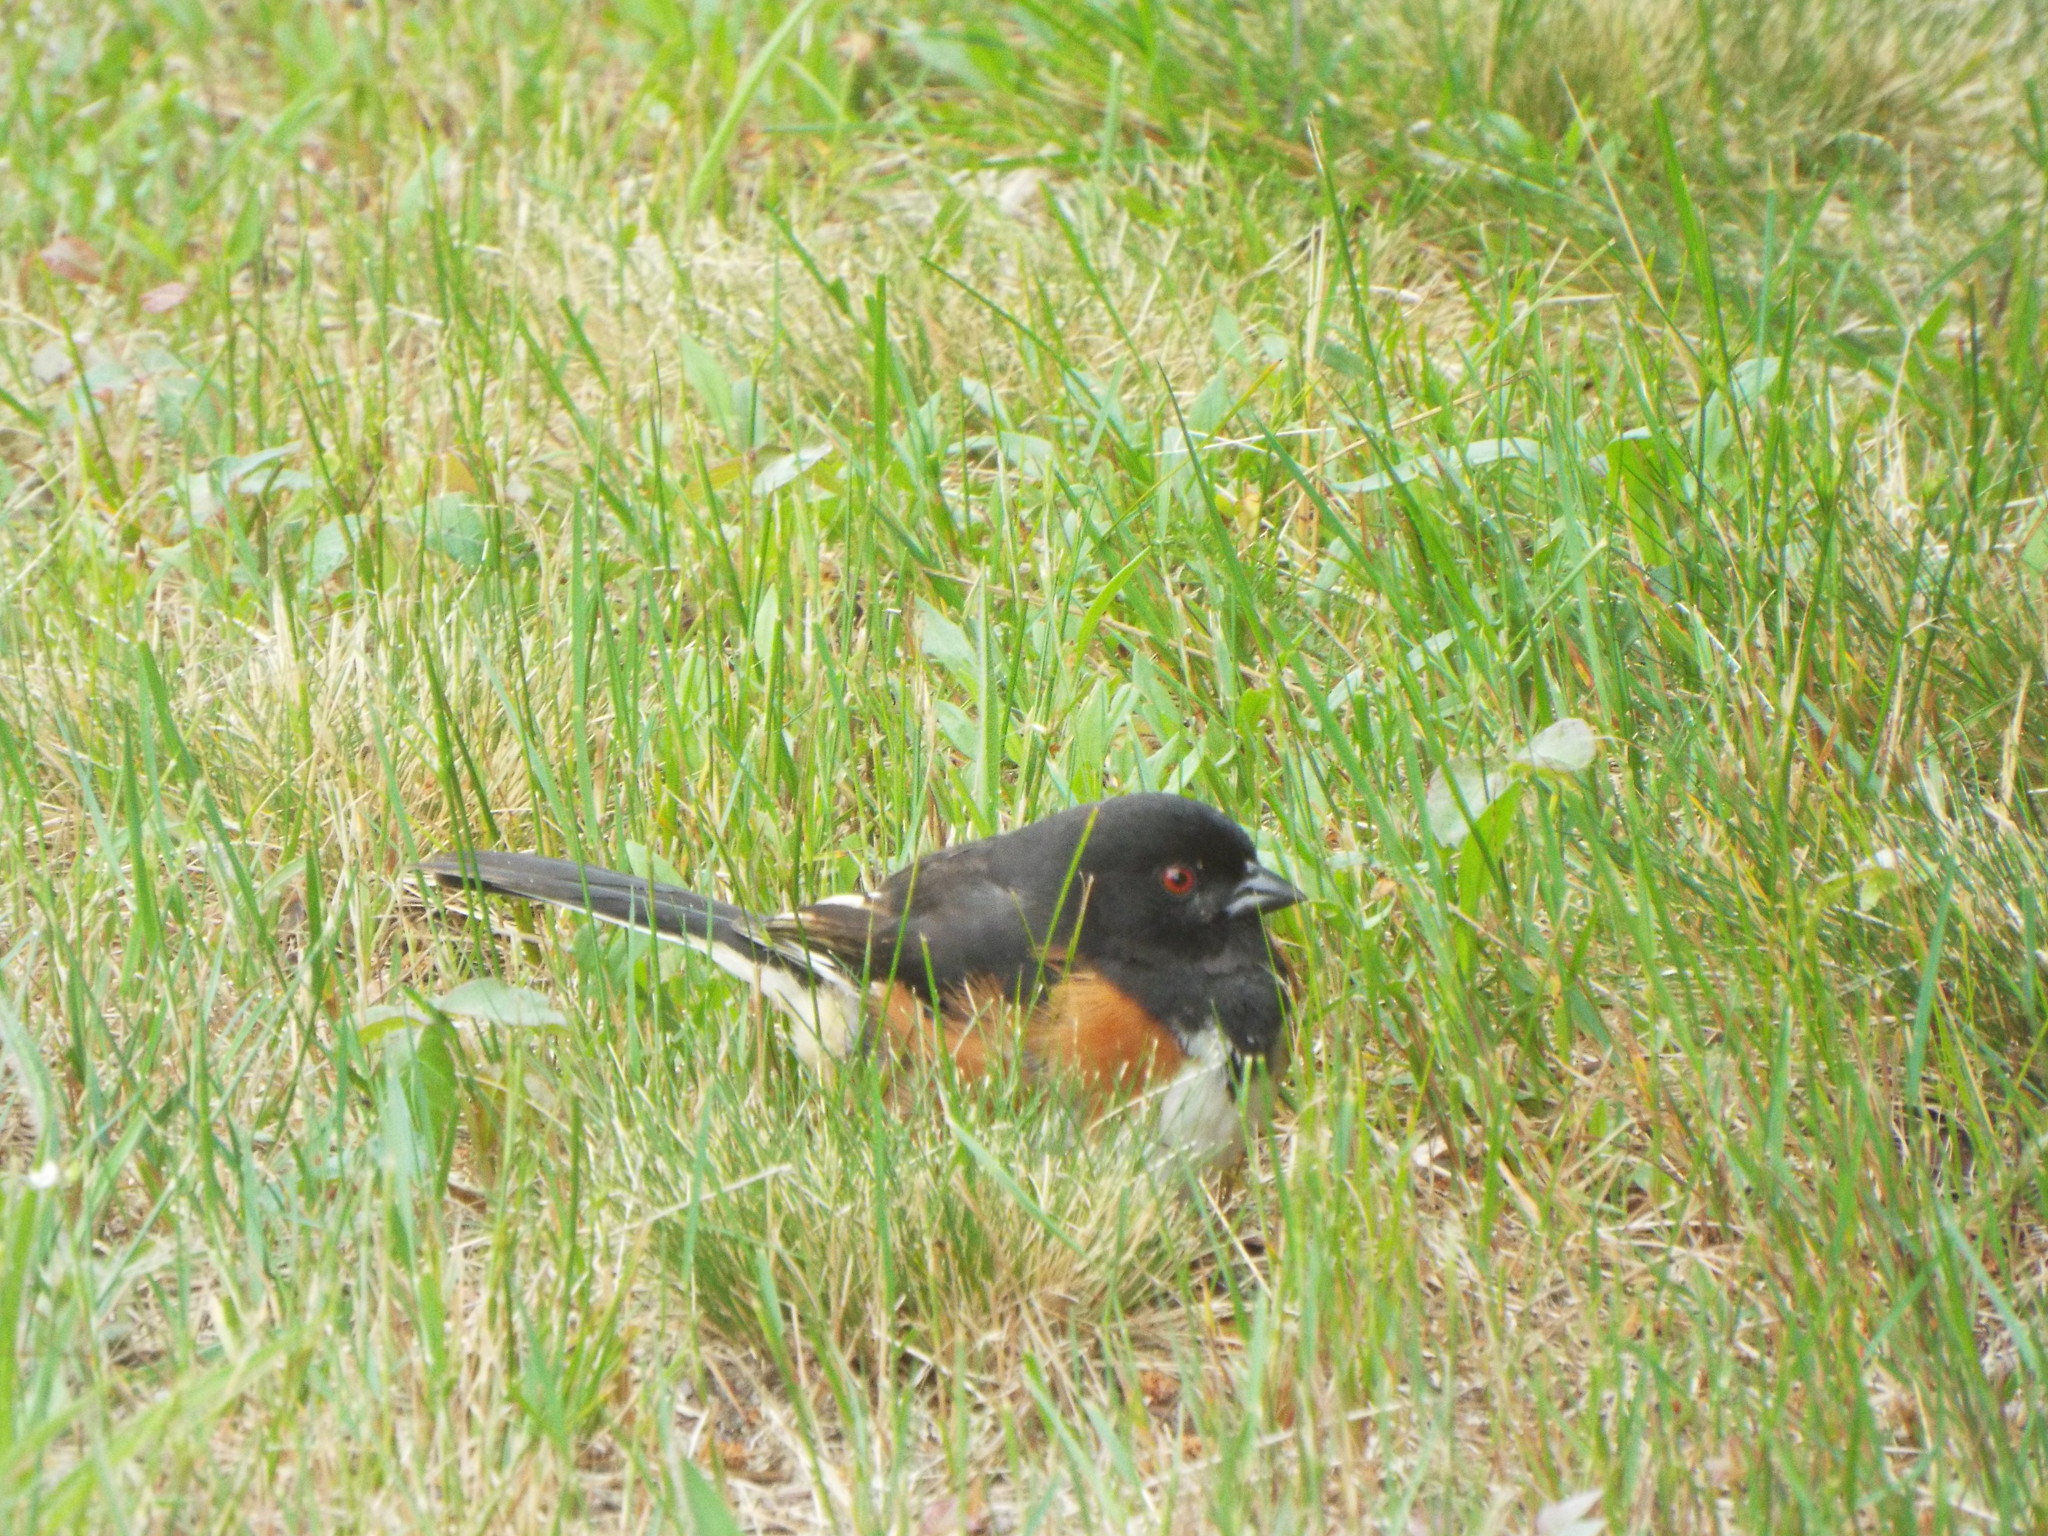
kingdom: Animalia
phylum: Chordata
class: Aves
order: Passeriformes
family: Passerellidae
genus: Pipilo
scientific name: Pipilo erythrophthalmus
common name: Eastern towhee
